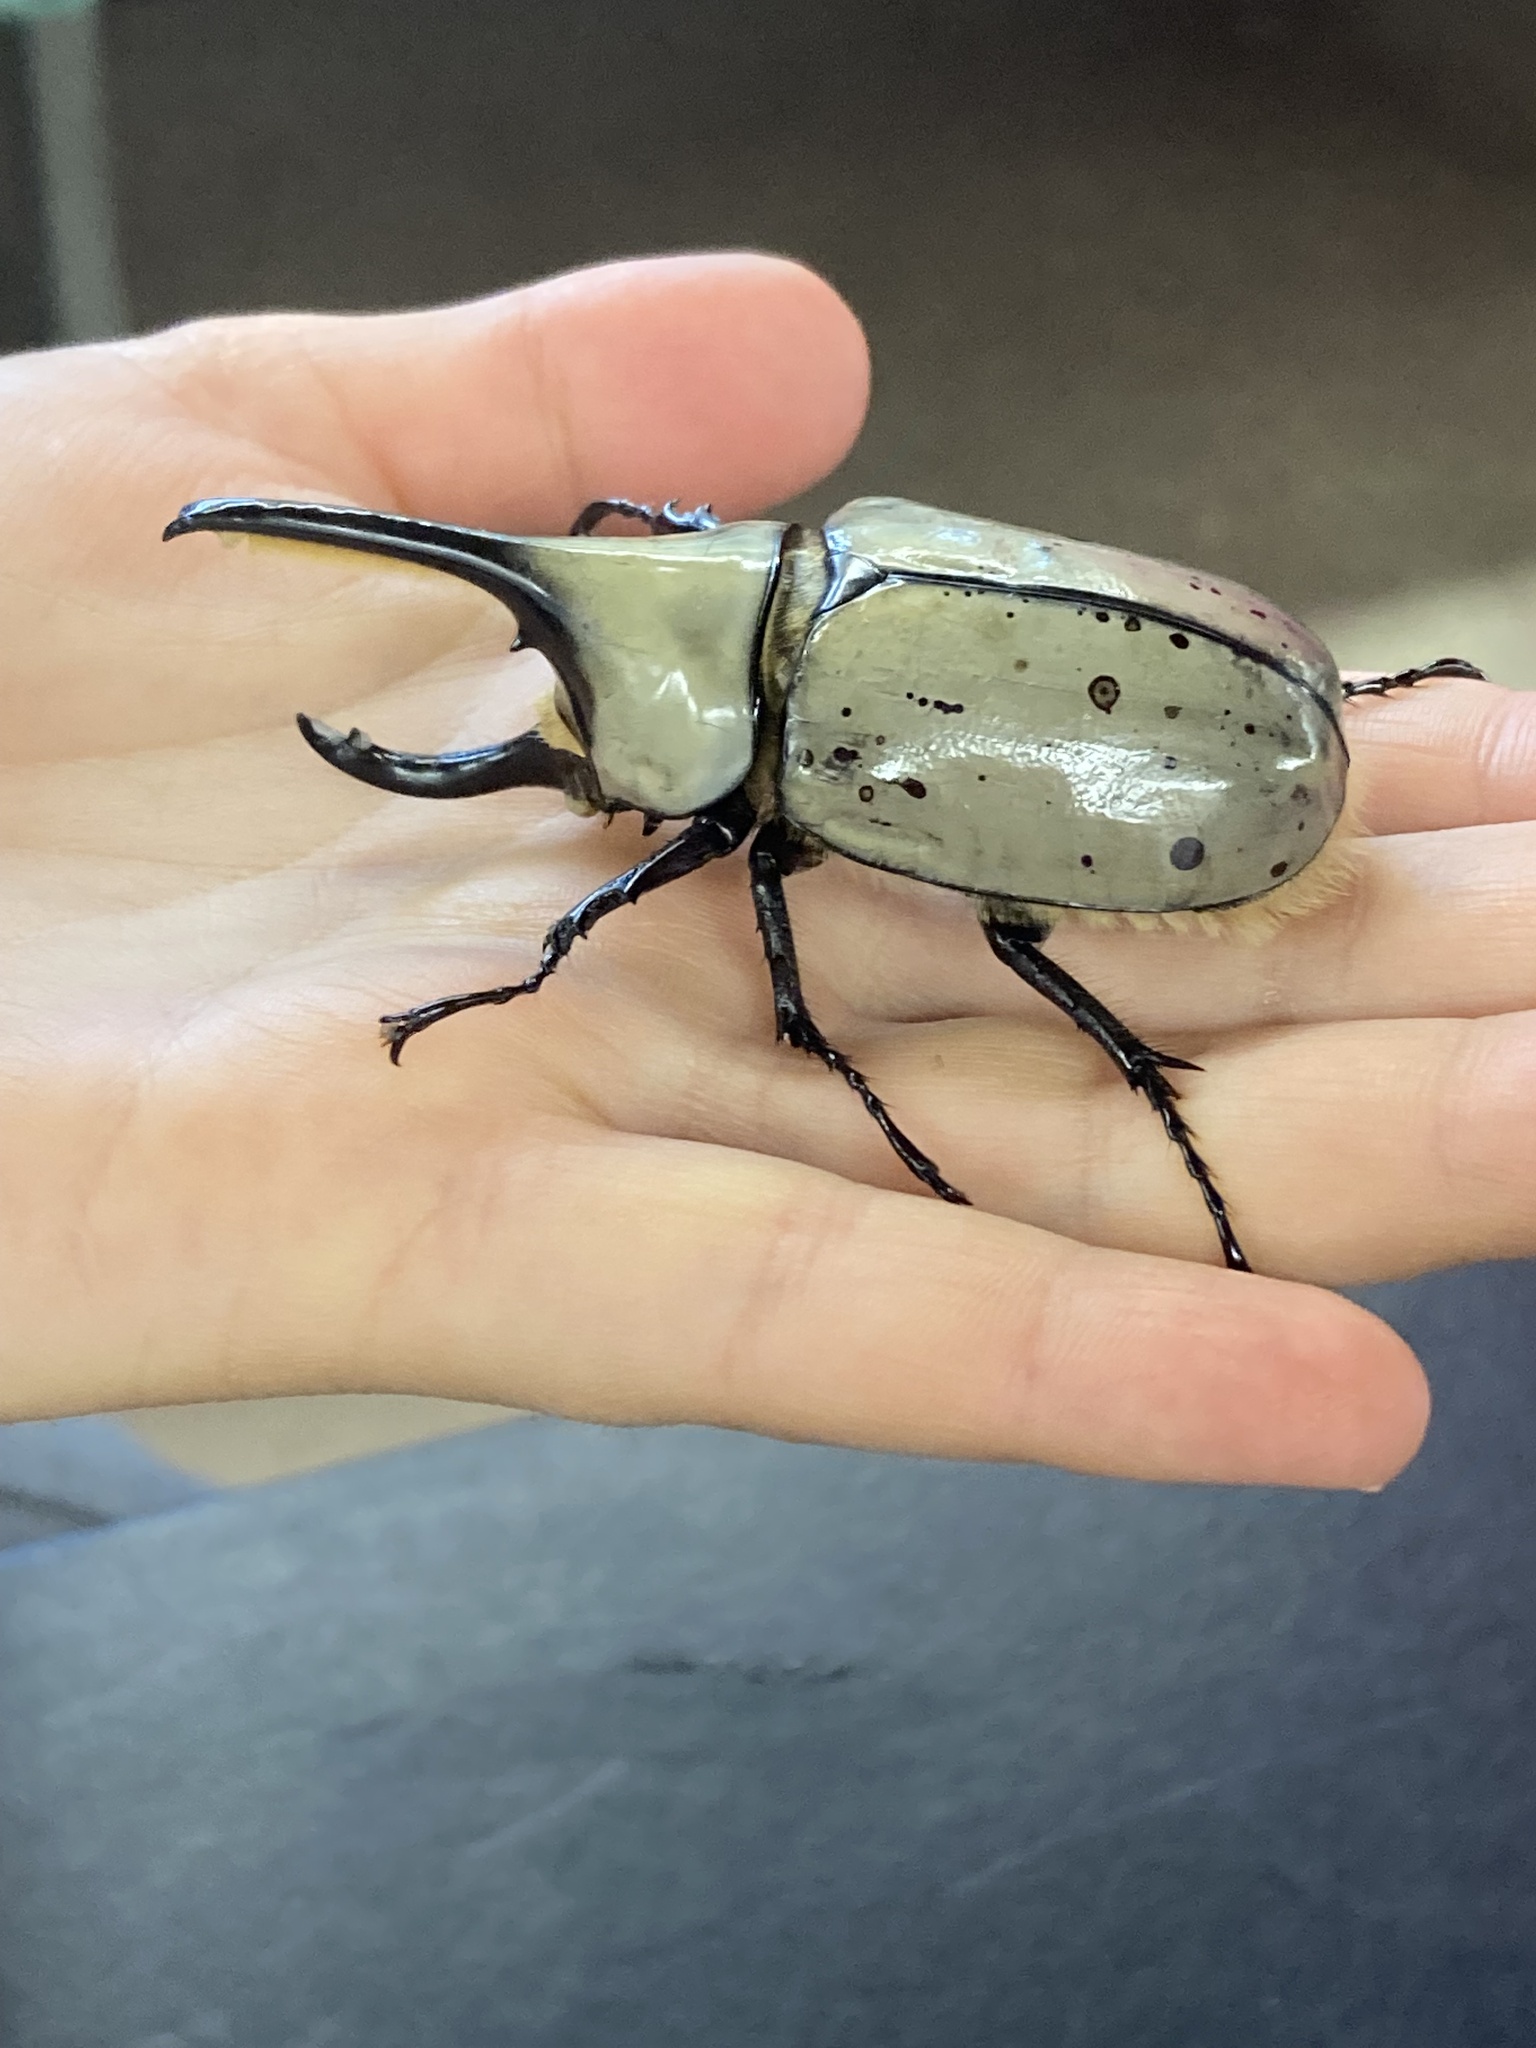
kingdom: Animalia
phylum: Arthropoda
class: Insecta
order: Coleoptera
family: Scarabaeidae
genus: Dynastes
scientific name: Dynastes grantii
